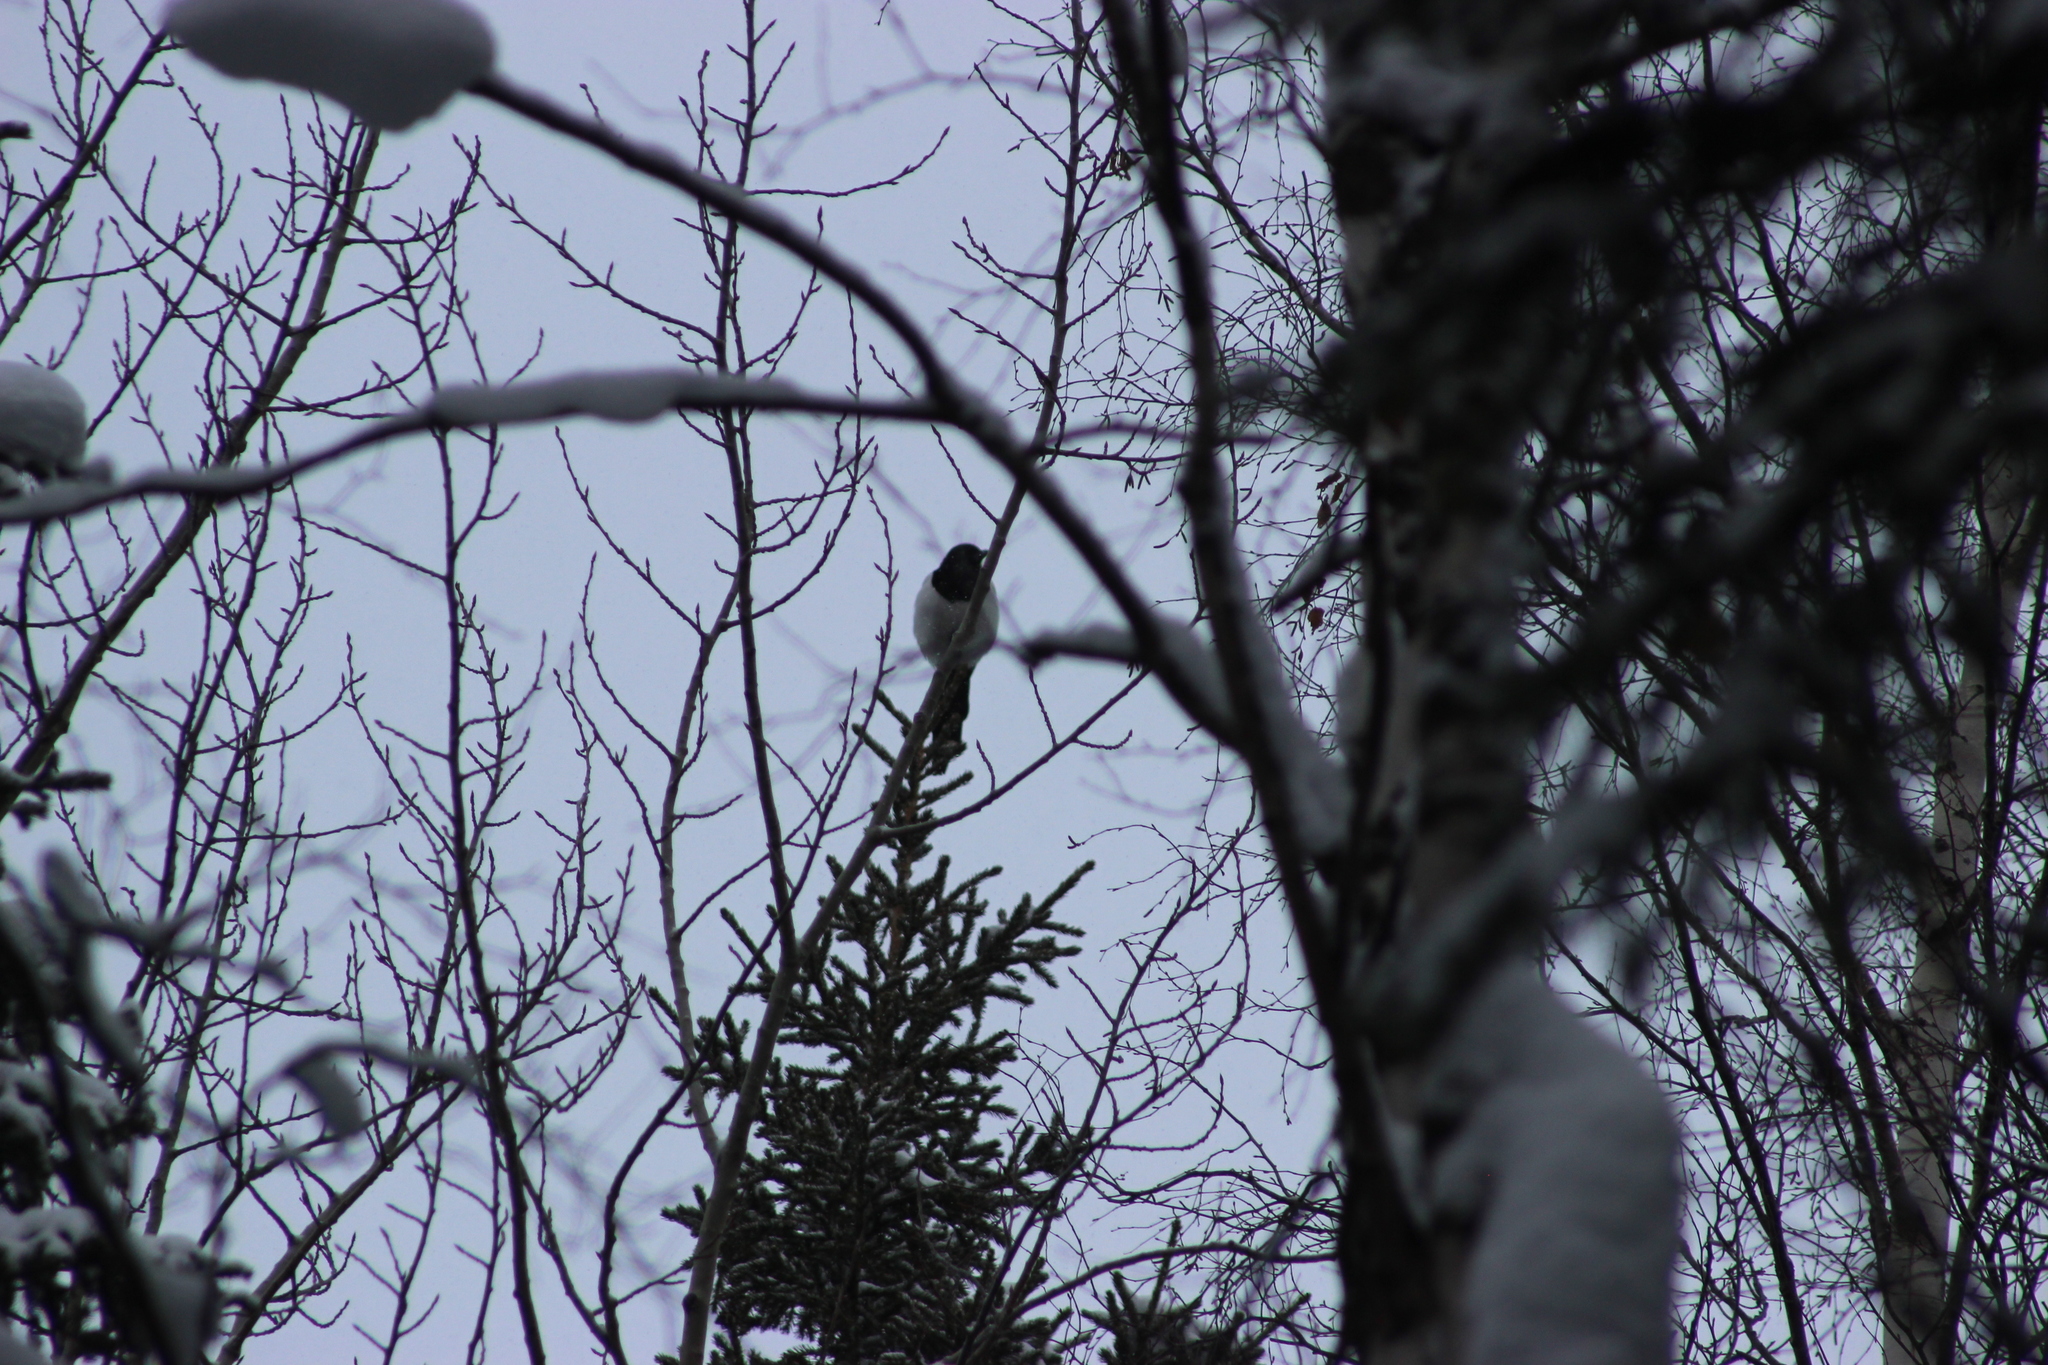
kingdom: Animalia
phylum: Chordata
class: Aves
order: Passeriformes
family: Corvidae
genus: Pica
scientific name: Pica pica
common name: Eurasian magpie
